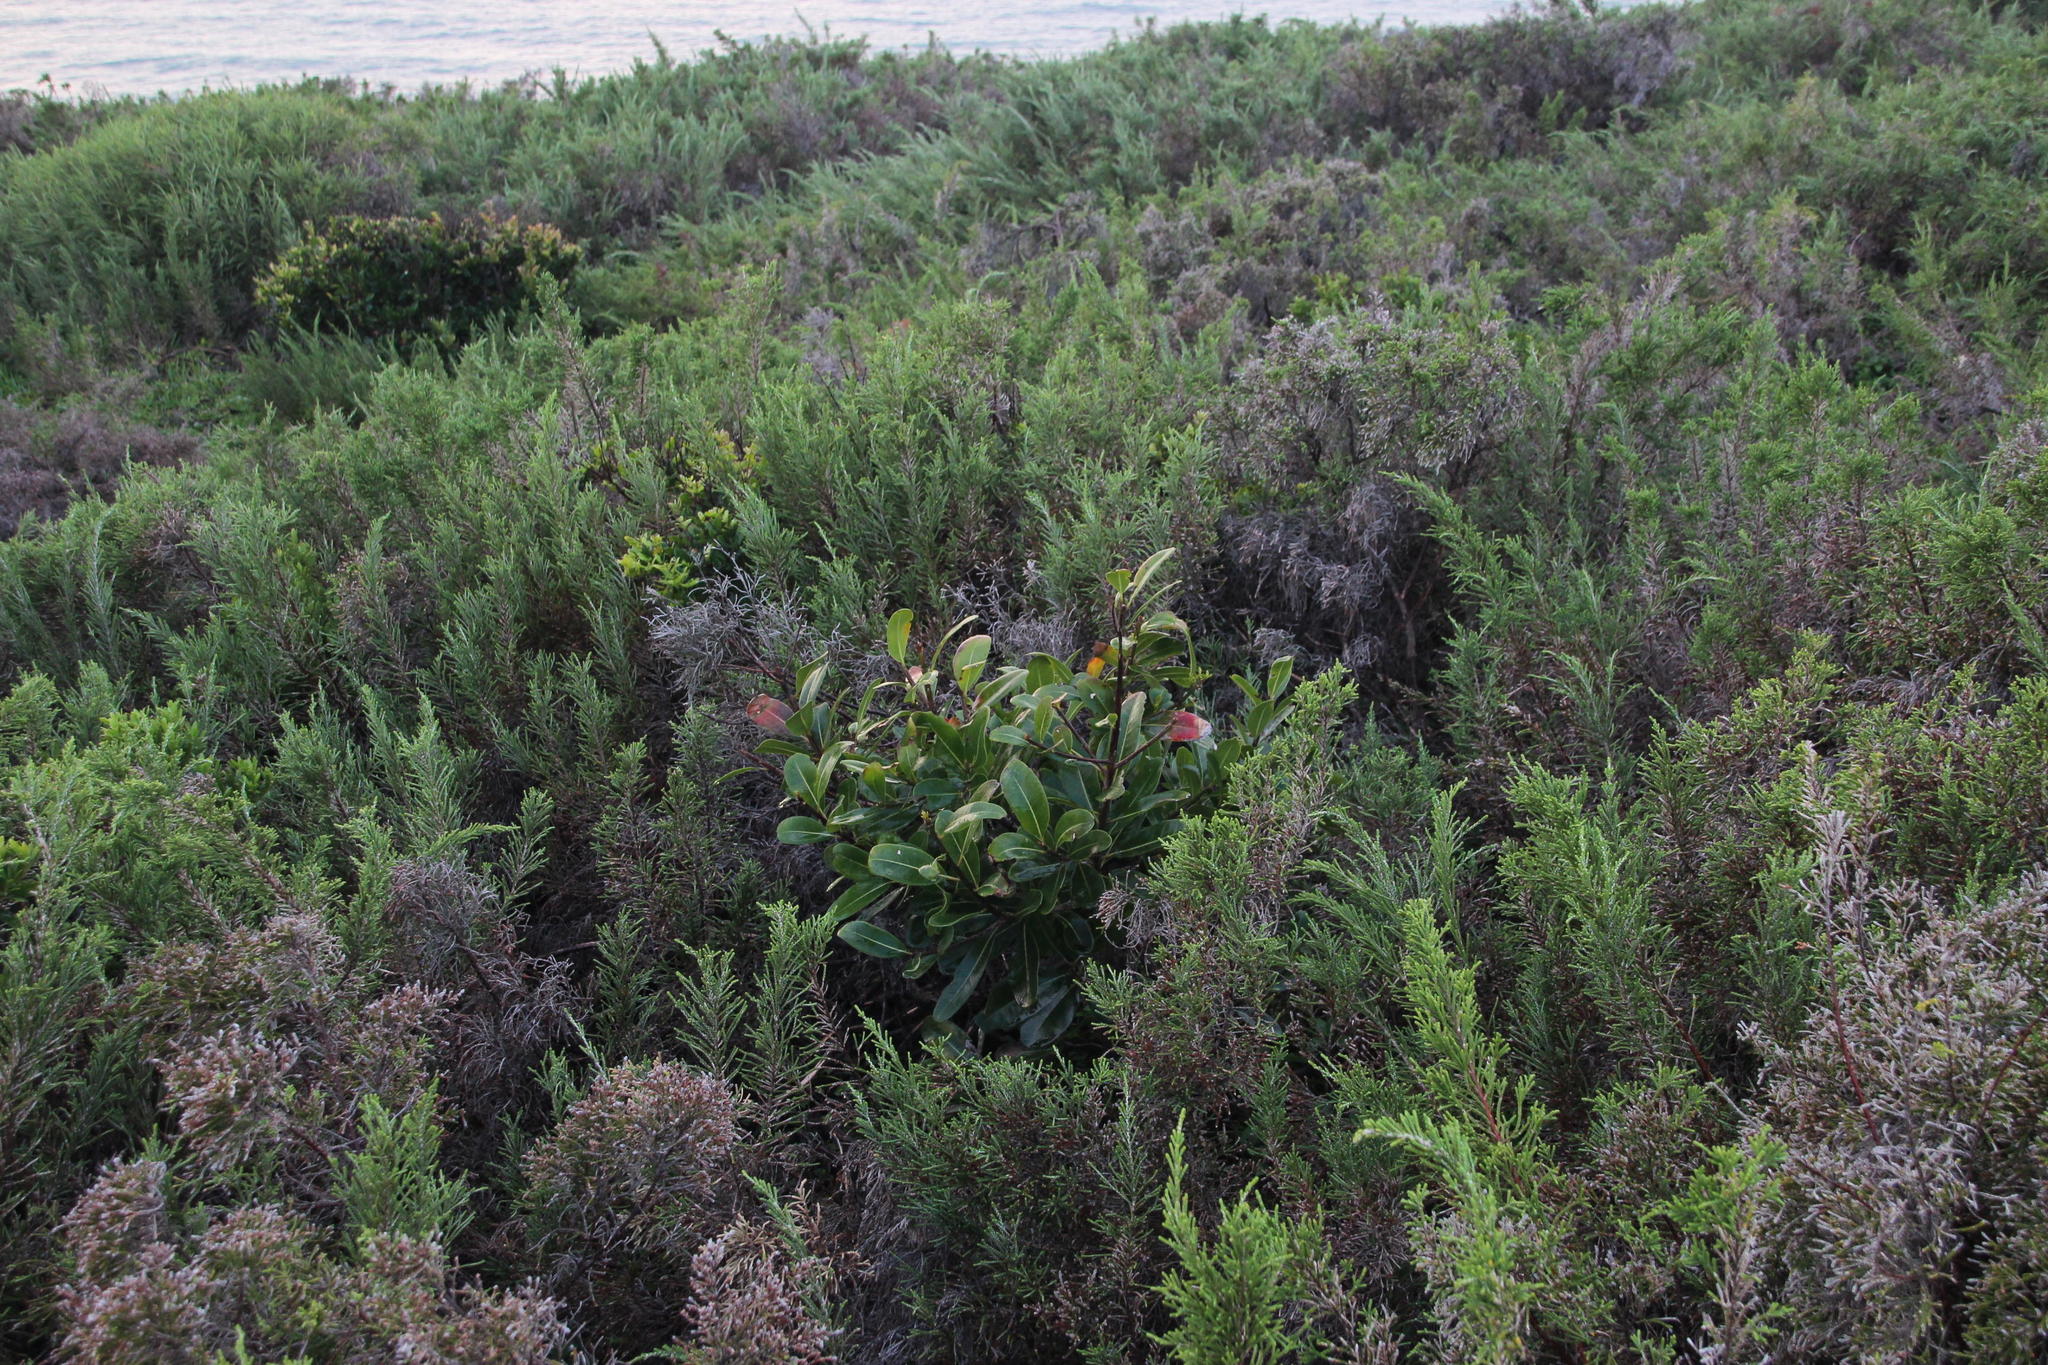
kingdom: Plantae
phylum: Tracheophyta
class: Magnoliopsida
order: Ericales
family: Sapotaceae
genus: Sideroxylon
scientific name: Sideroxylon inerme
